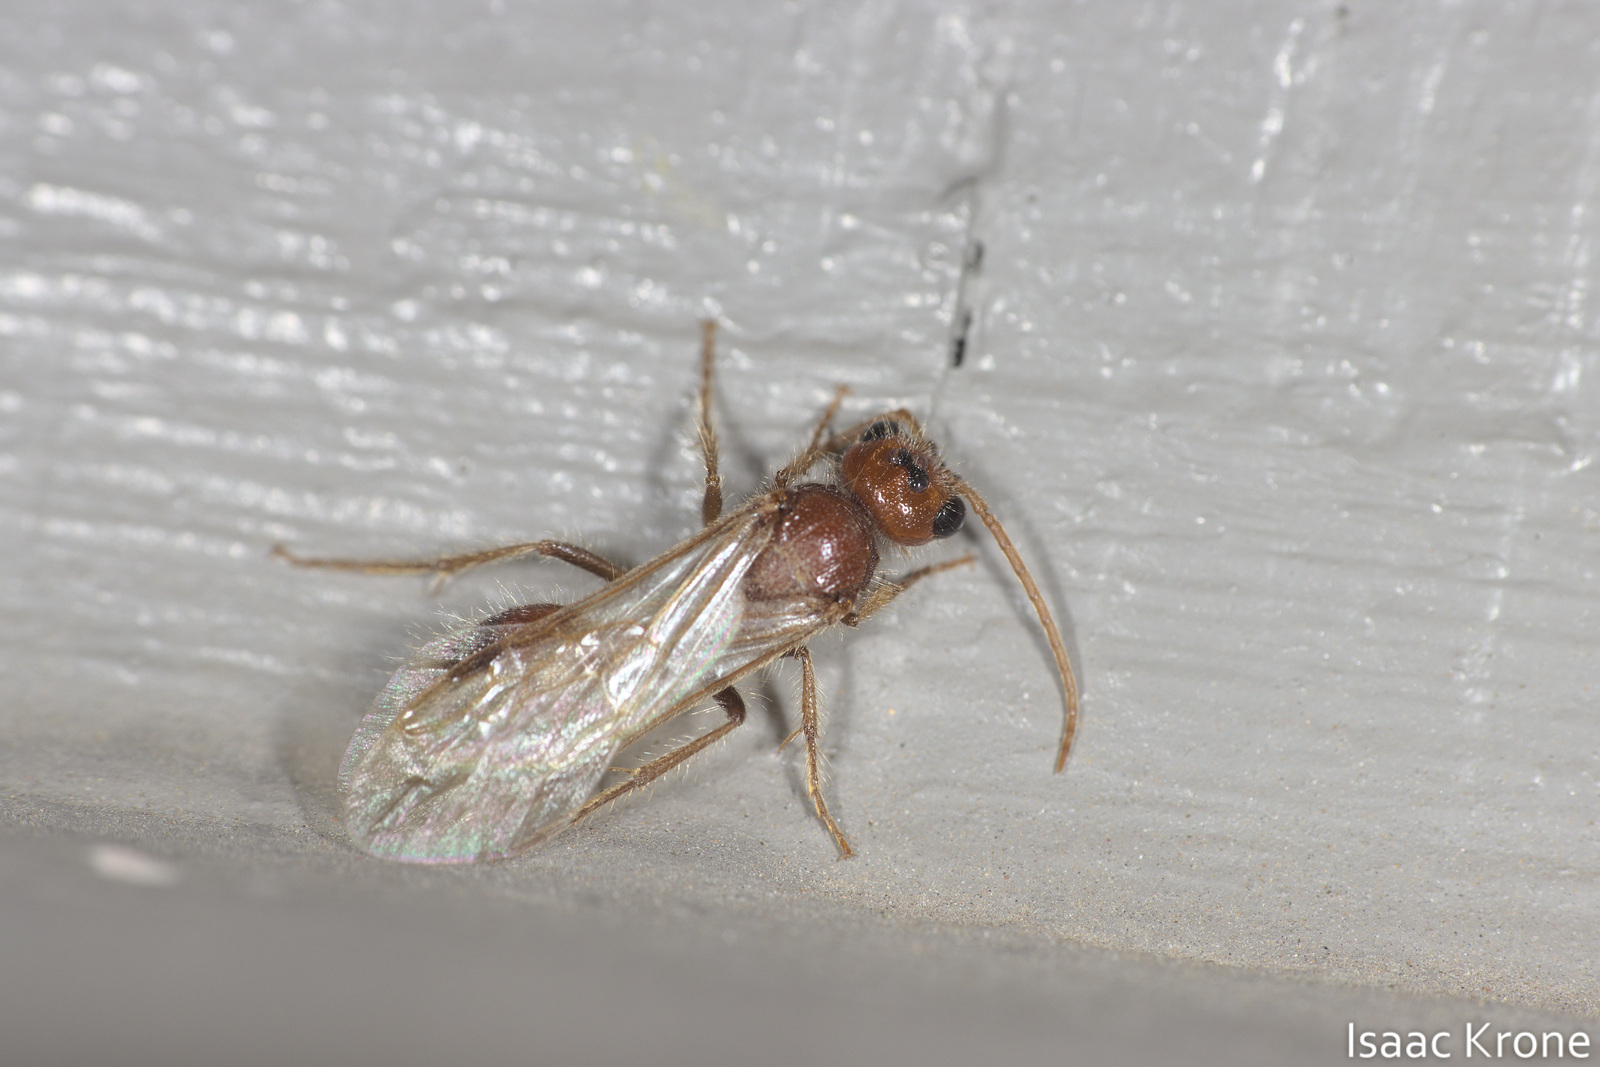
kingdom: Animalia
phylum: Arthropoda
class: Insecta
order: Hymenoptera
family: Mutillidae
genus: Odontophotopsis
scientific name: Odontophotopsis
